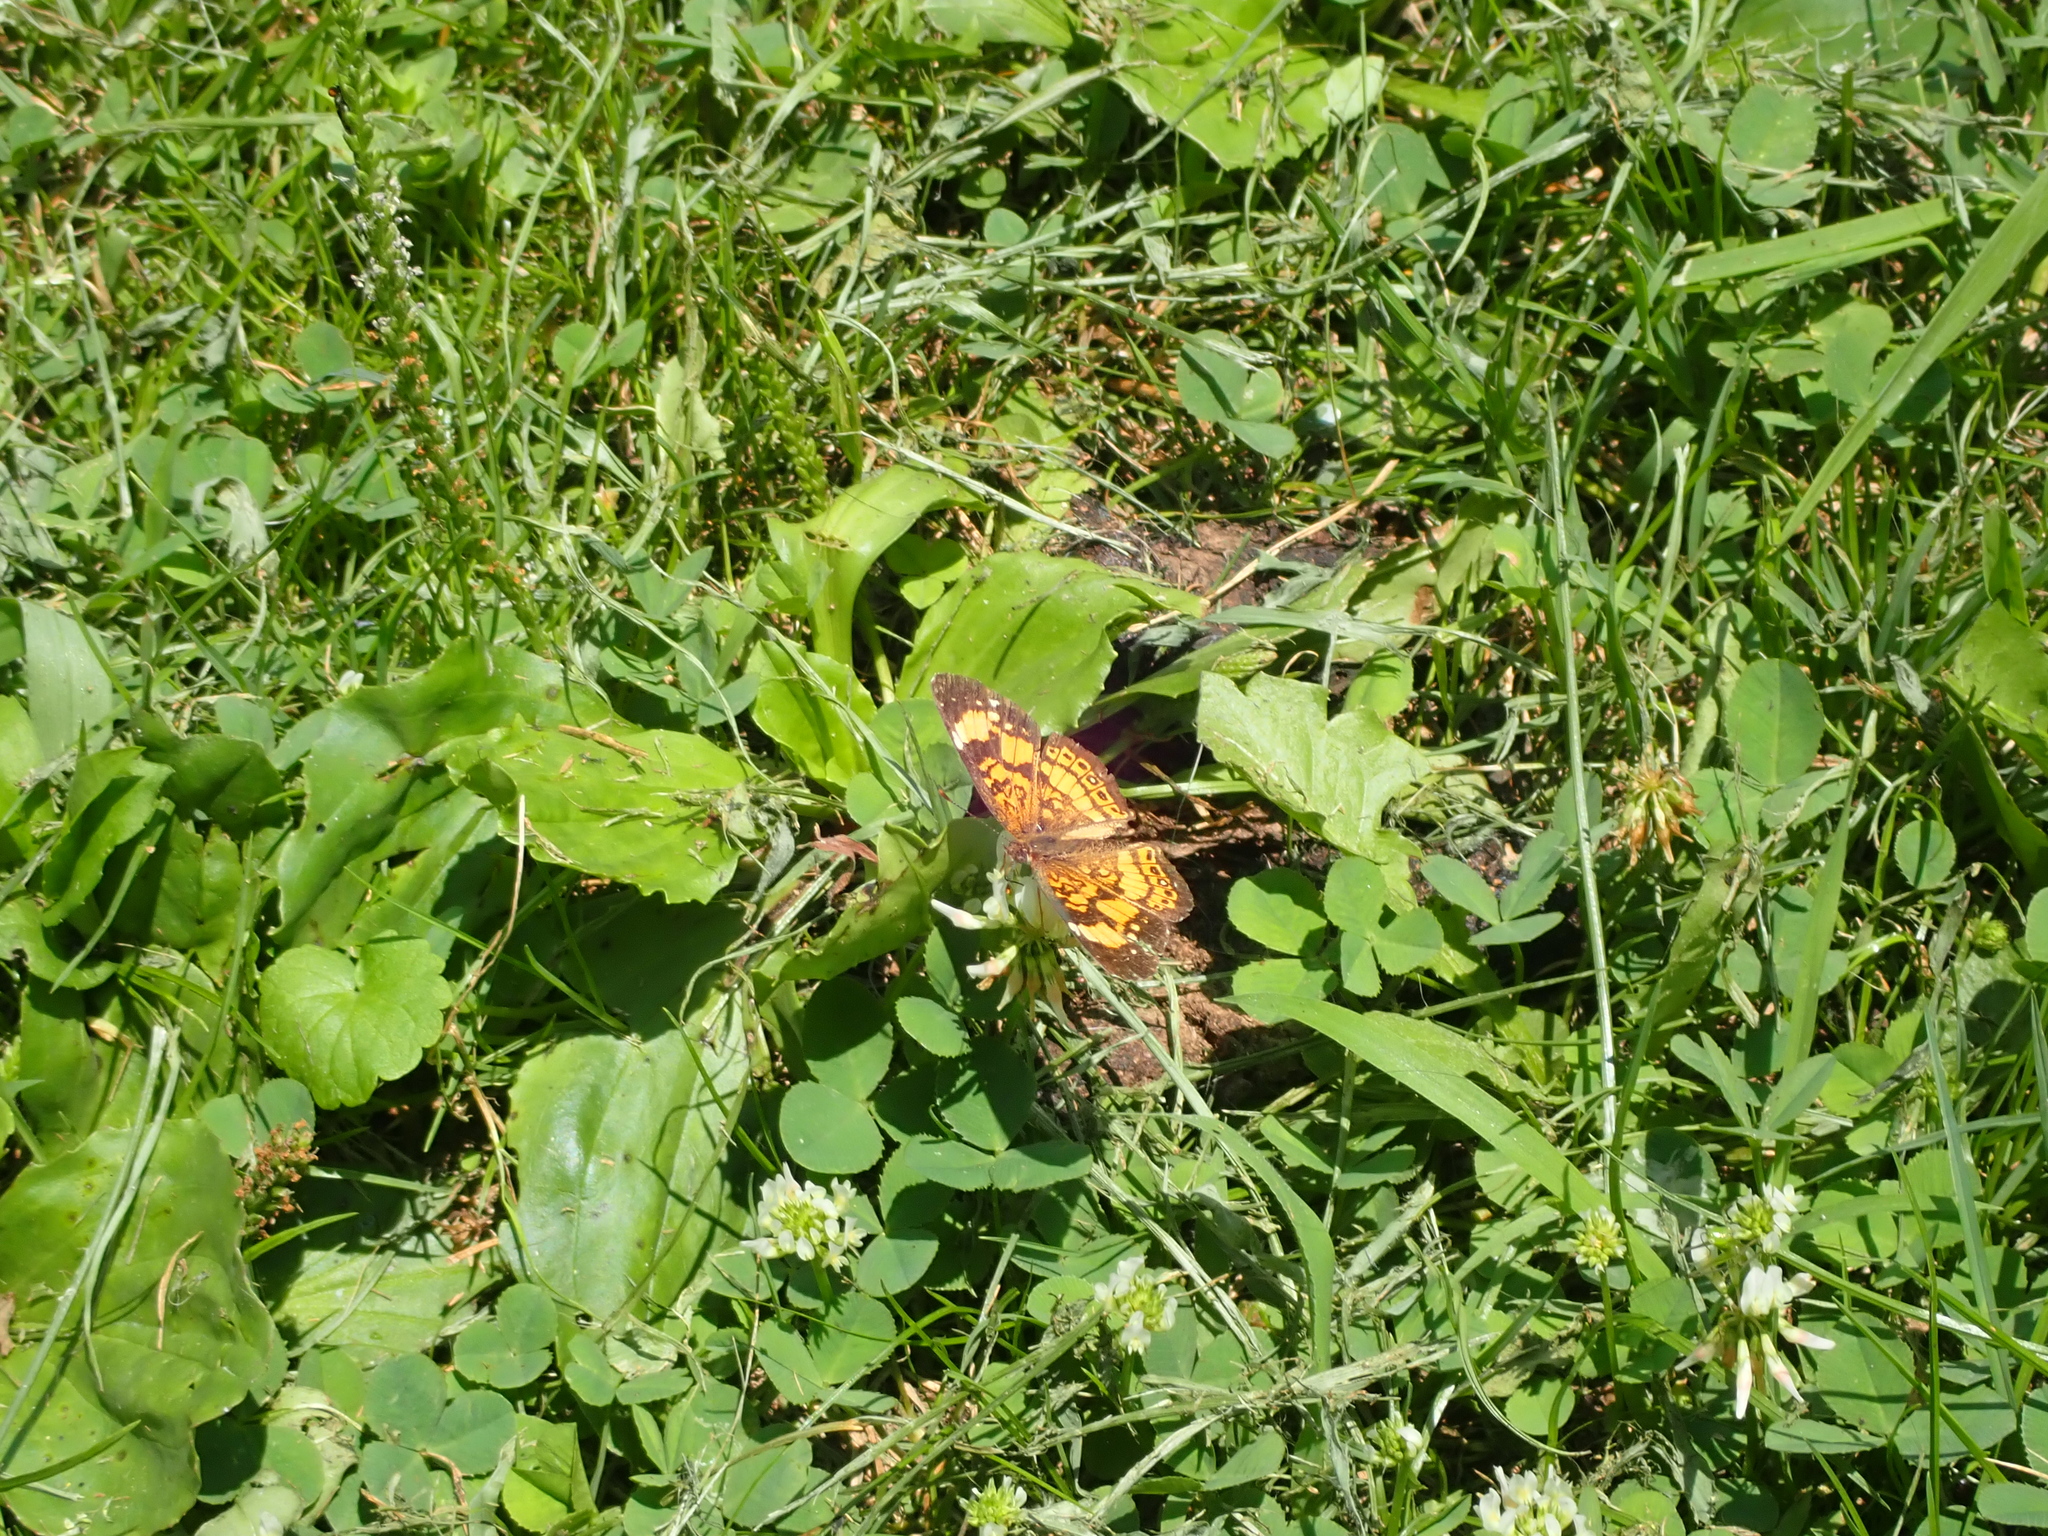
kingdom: Animalia
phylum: Arthropoda
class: Insecta
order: Lepidoptera
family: Nymphalidae
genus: Chlosyne
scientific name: Chlosyne nycteis
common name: Silvery checkerspot
